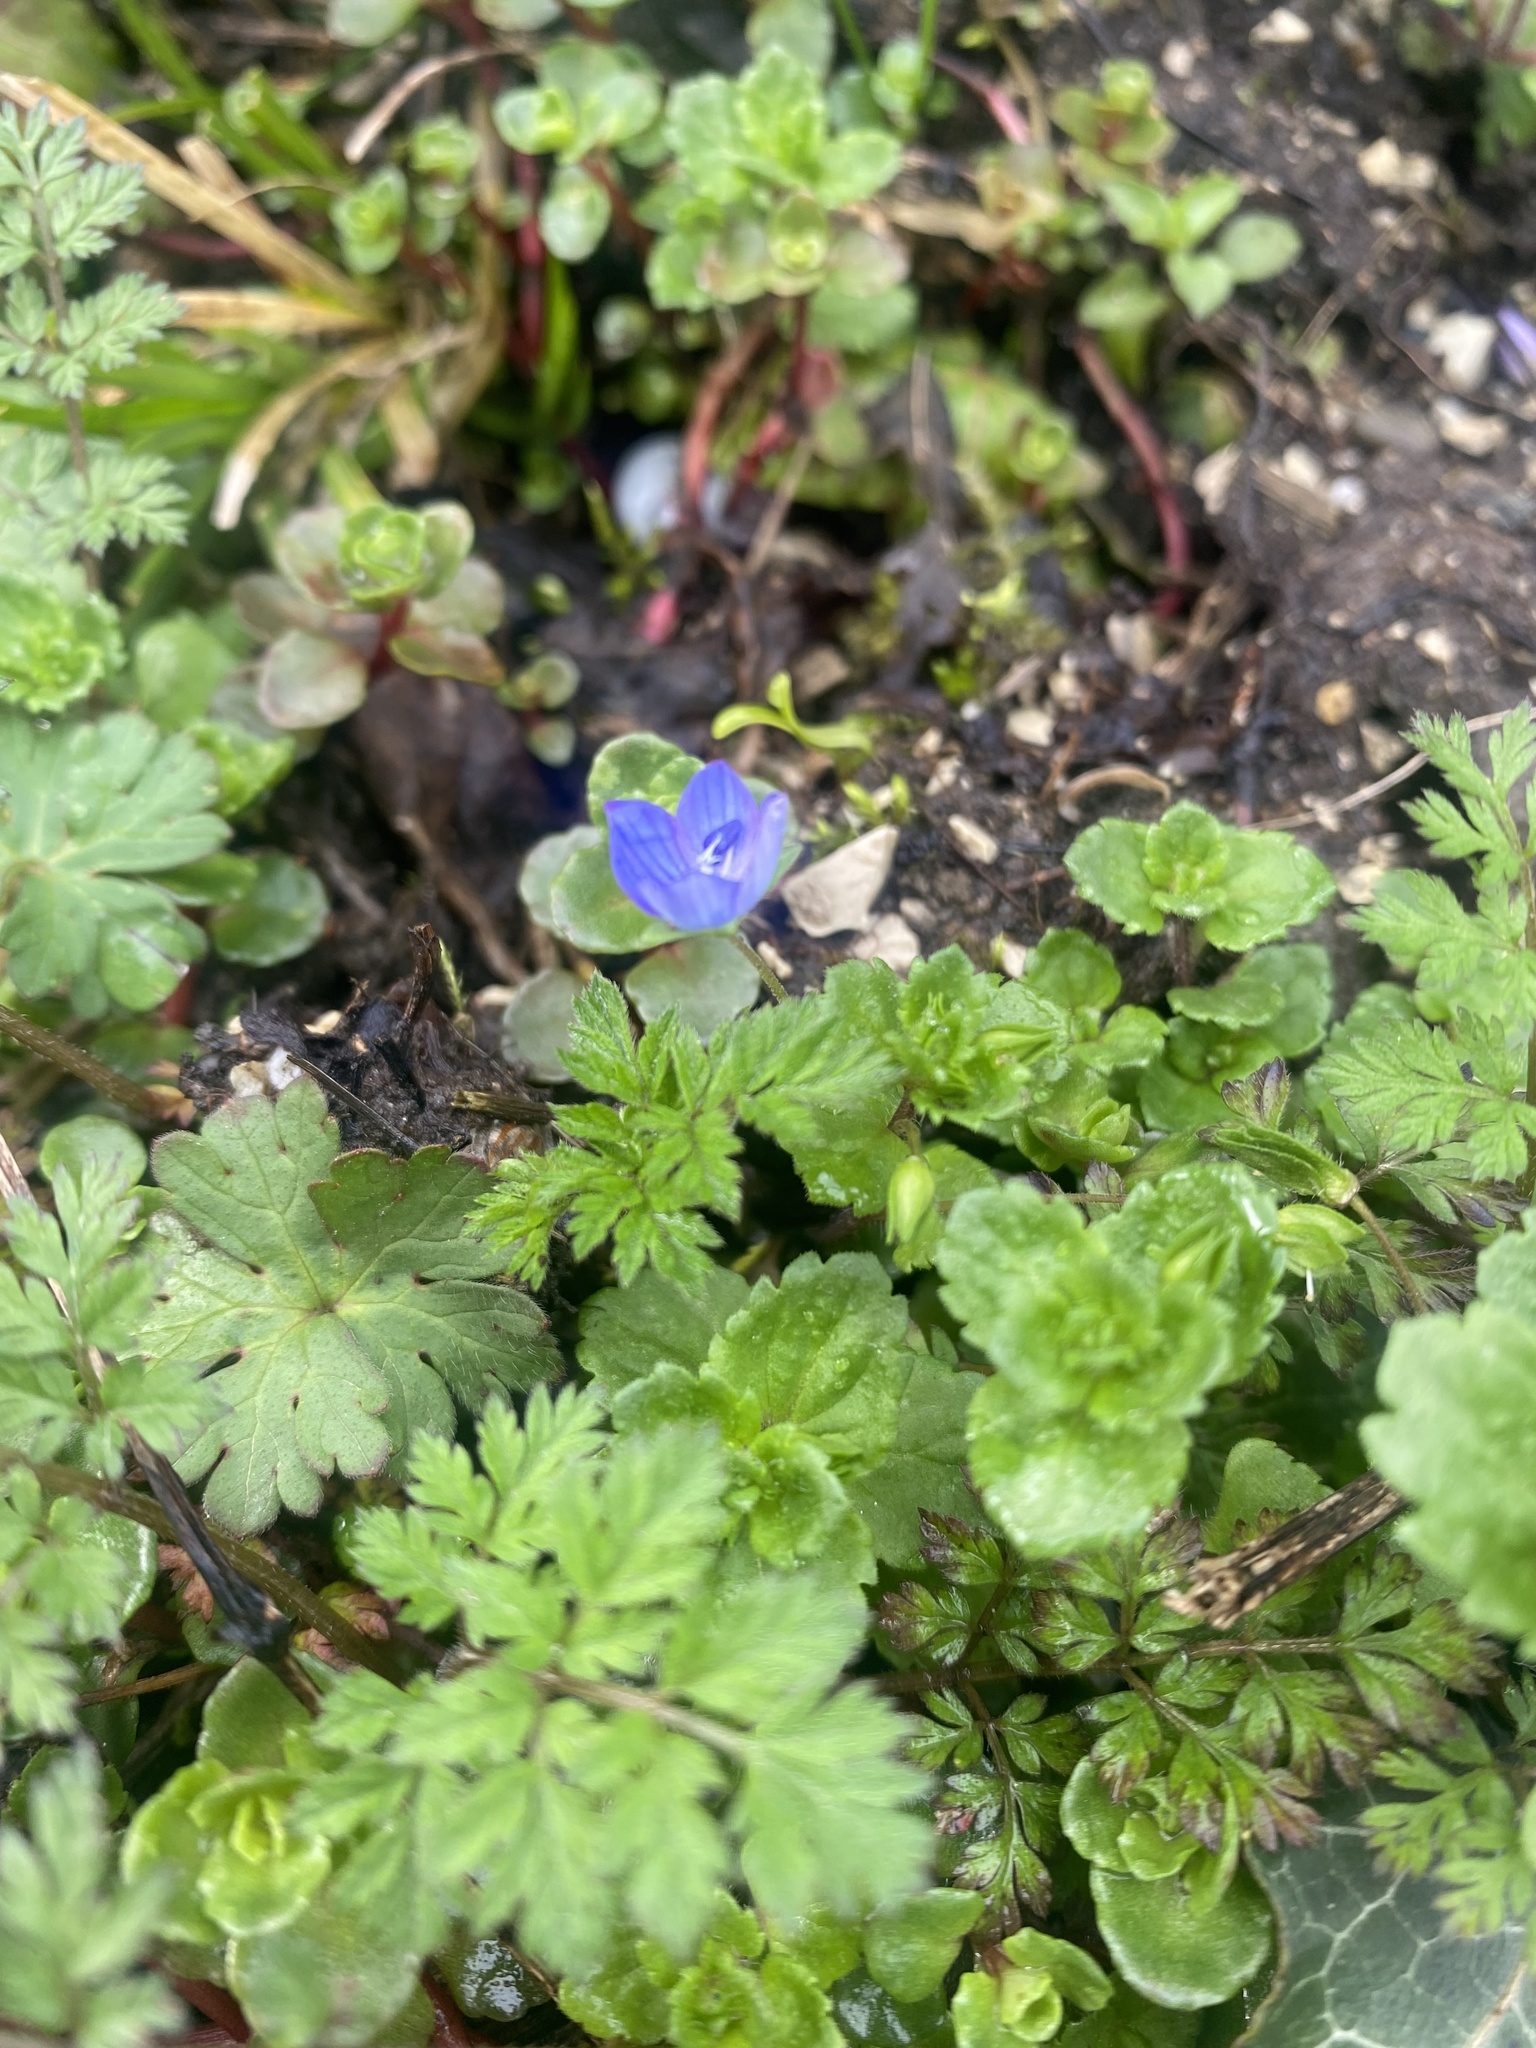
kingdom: Plantae
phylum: Tracheophyta
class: Magnoliopsida
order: Lamiales
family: Plantaginaceae
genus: Veronica
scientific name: Veronica persica
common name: Common field-speedwell
